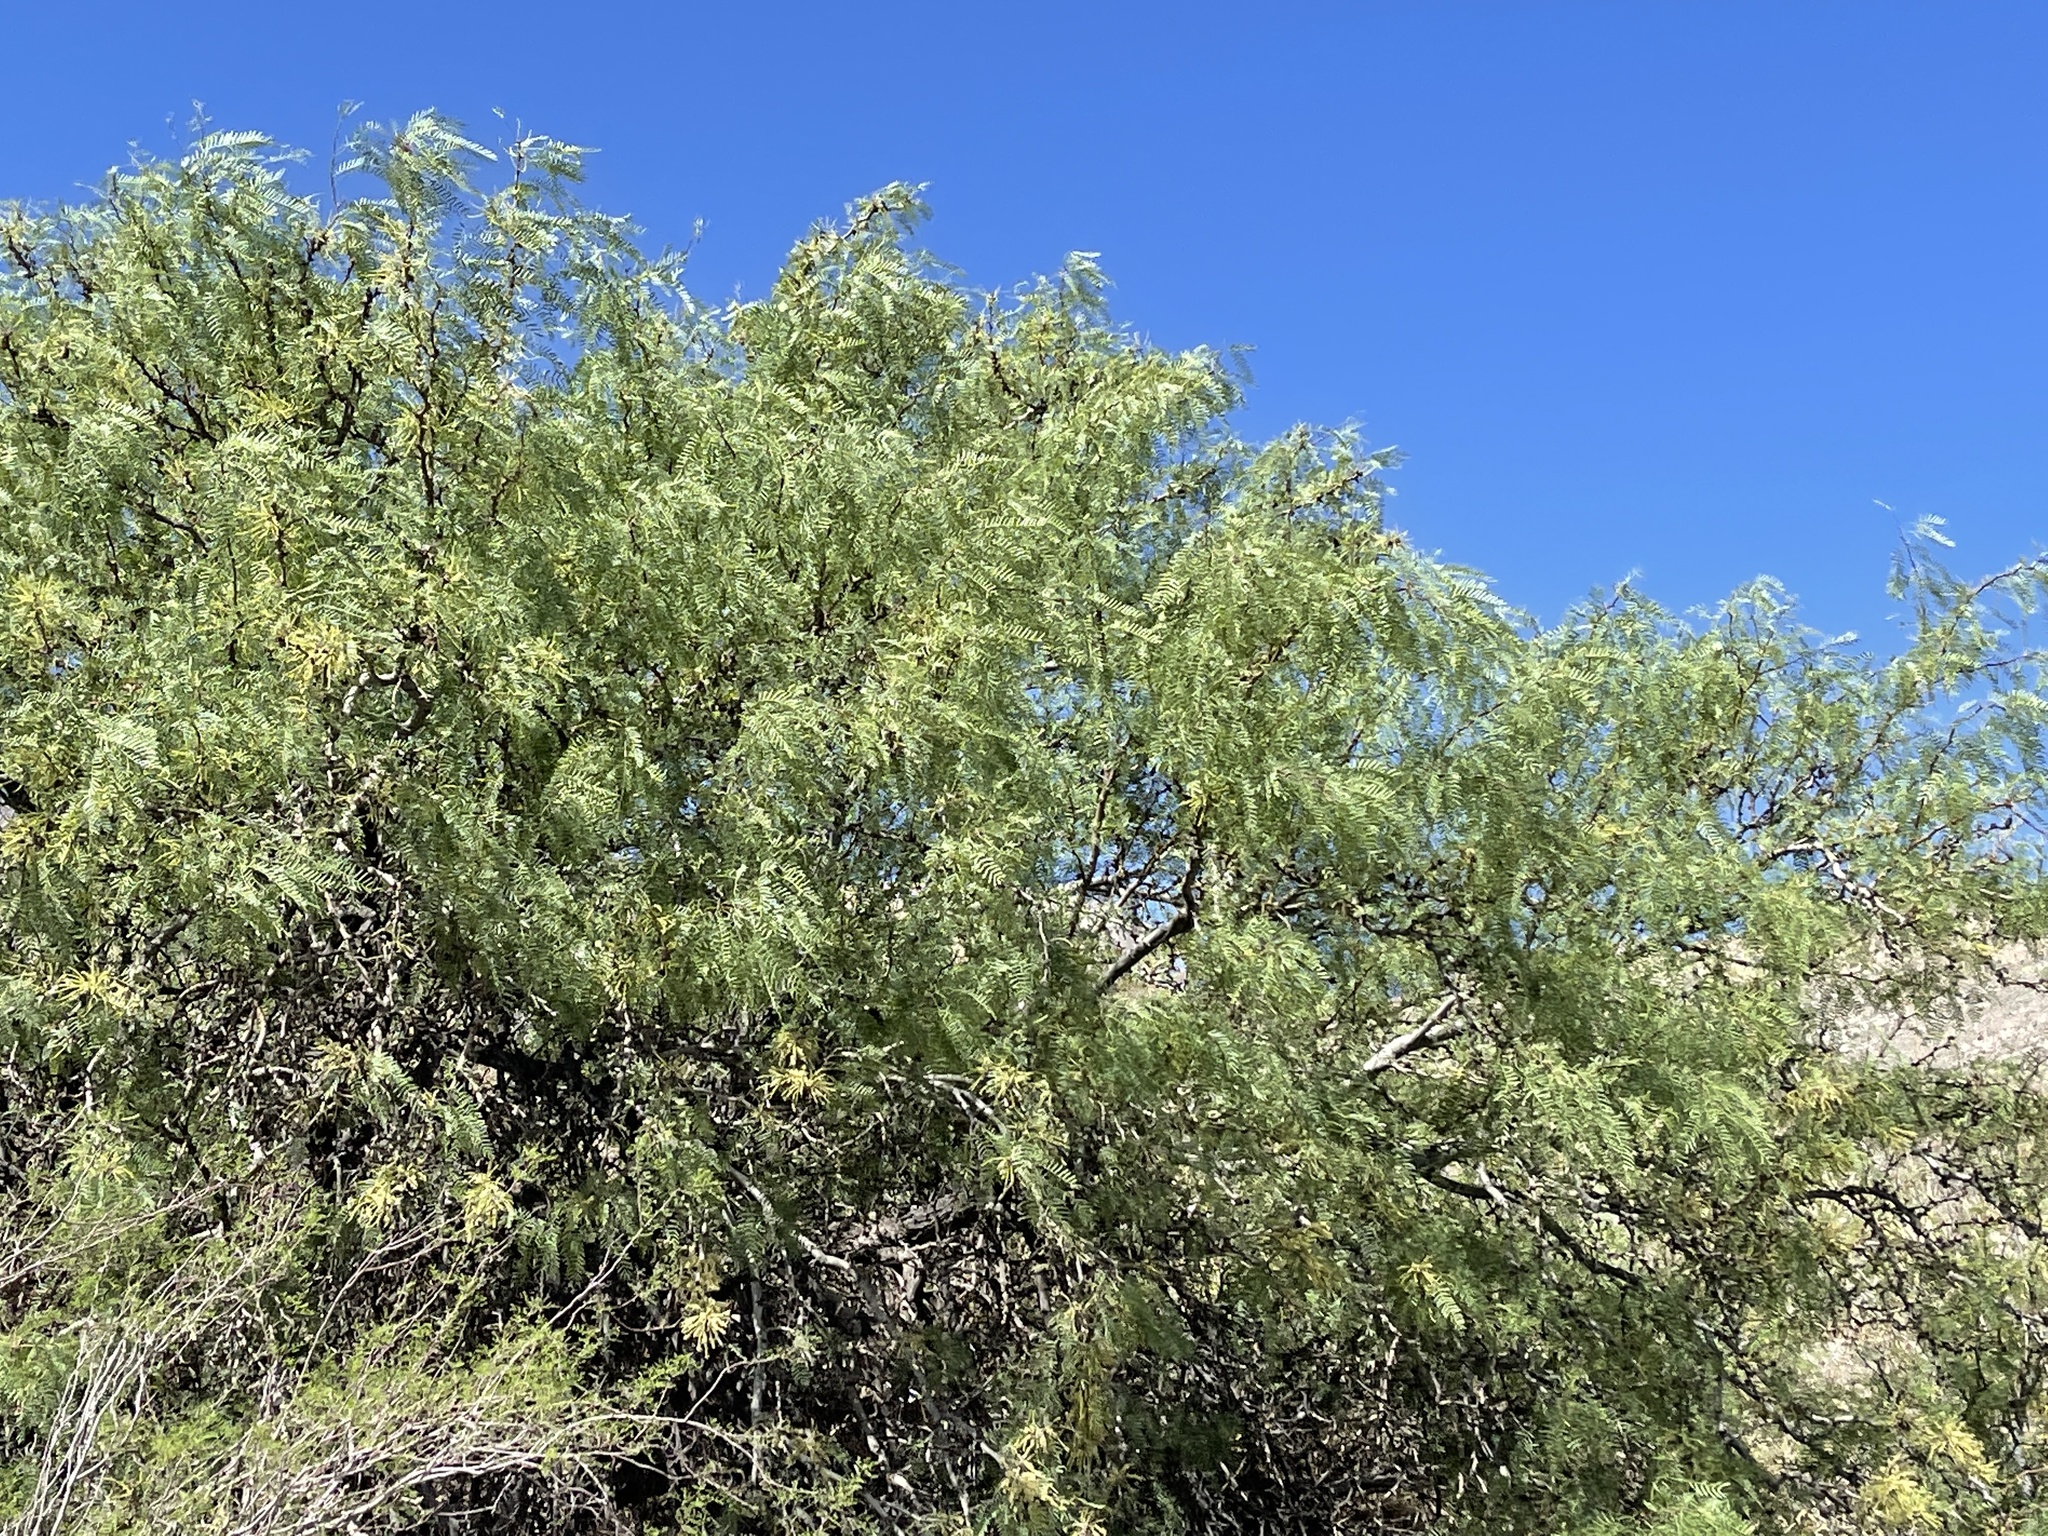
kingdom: Plantae
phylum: Tracheophyta
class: Magnoliopsida
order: Fabales
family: Fabaceae
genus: Prosopis
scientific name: Prosopis glandulosa
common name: Honey mesquite
